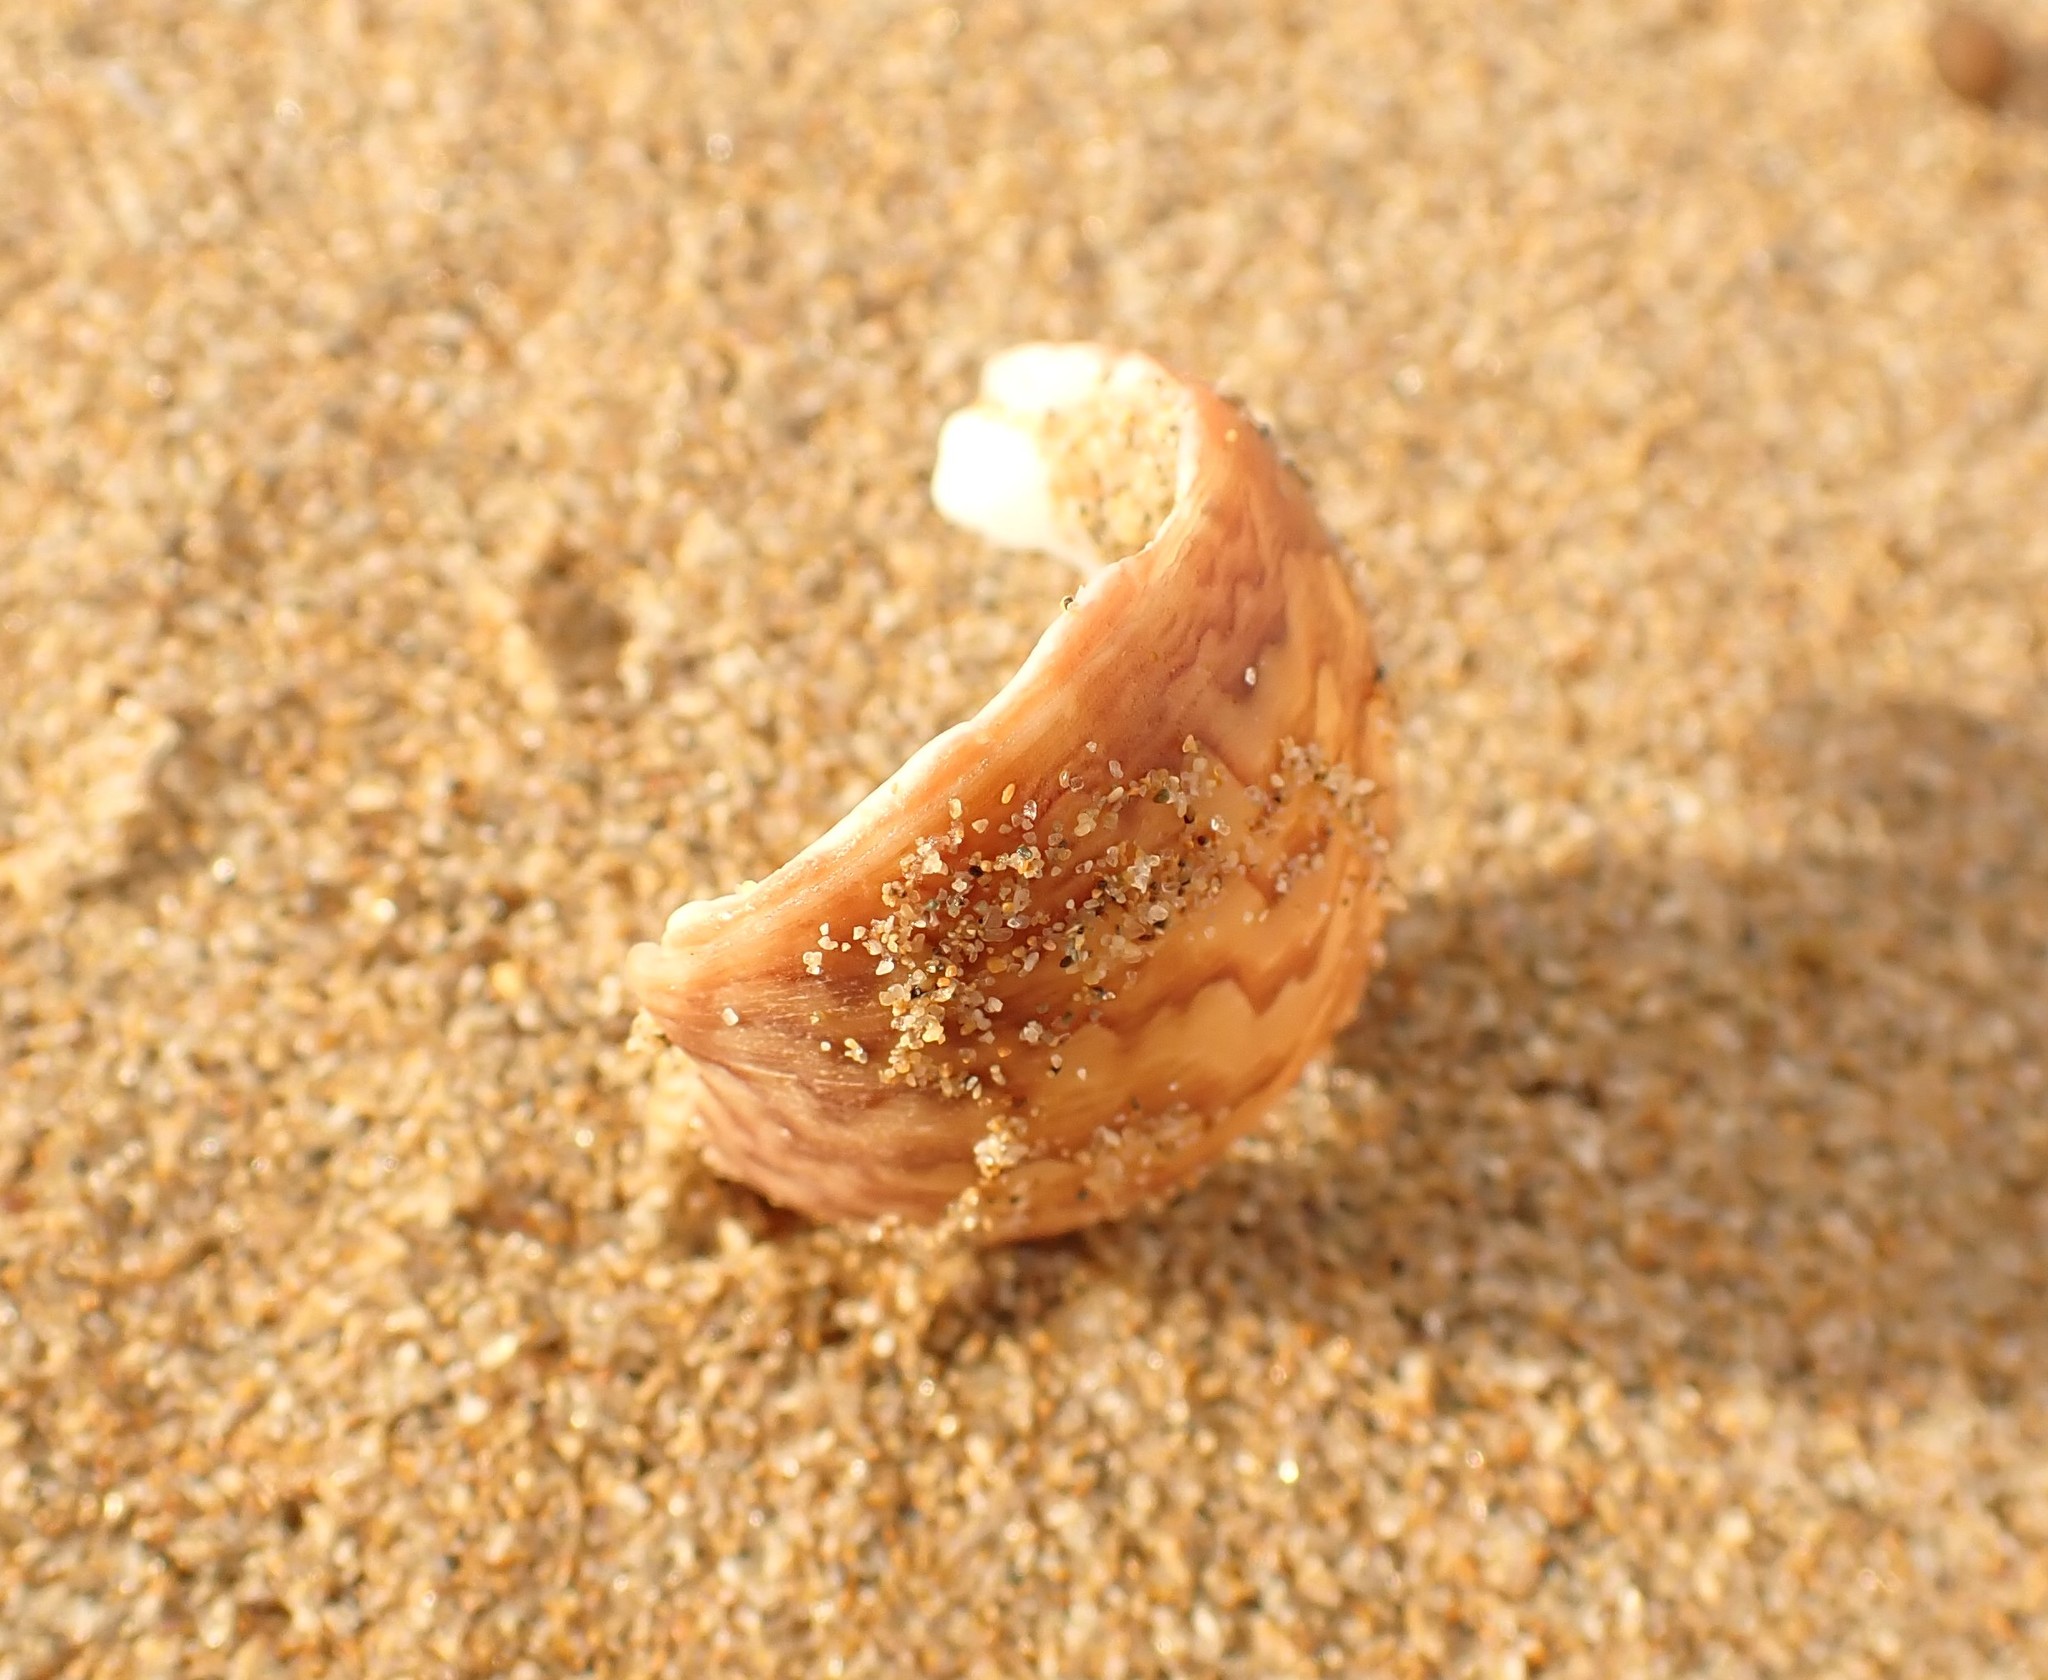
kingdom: Animalia
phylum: Mollusca
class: Gastropoda
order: Trochida
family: Phasianellidae
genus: Phasianella
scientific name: Phasianella ventricosa
